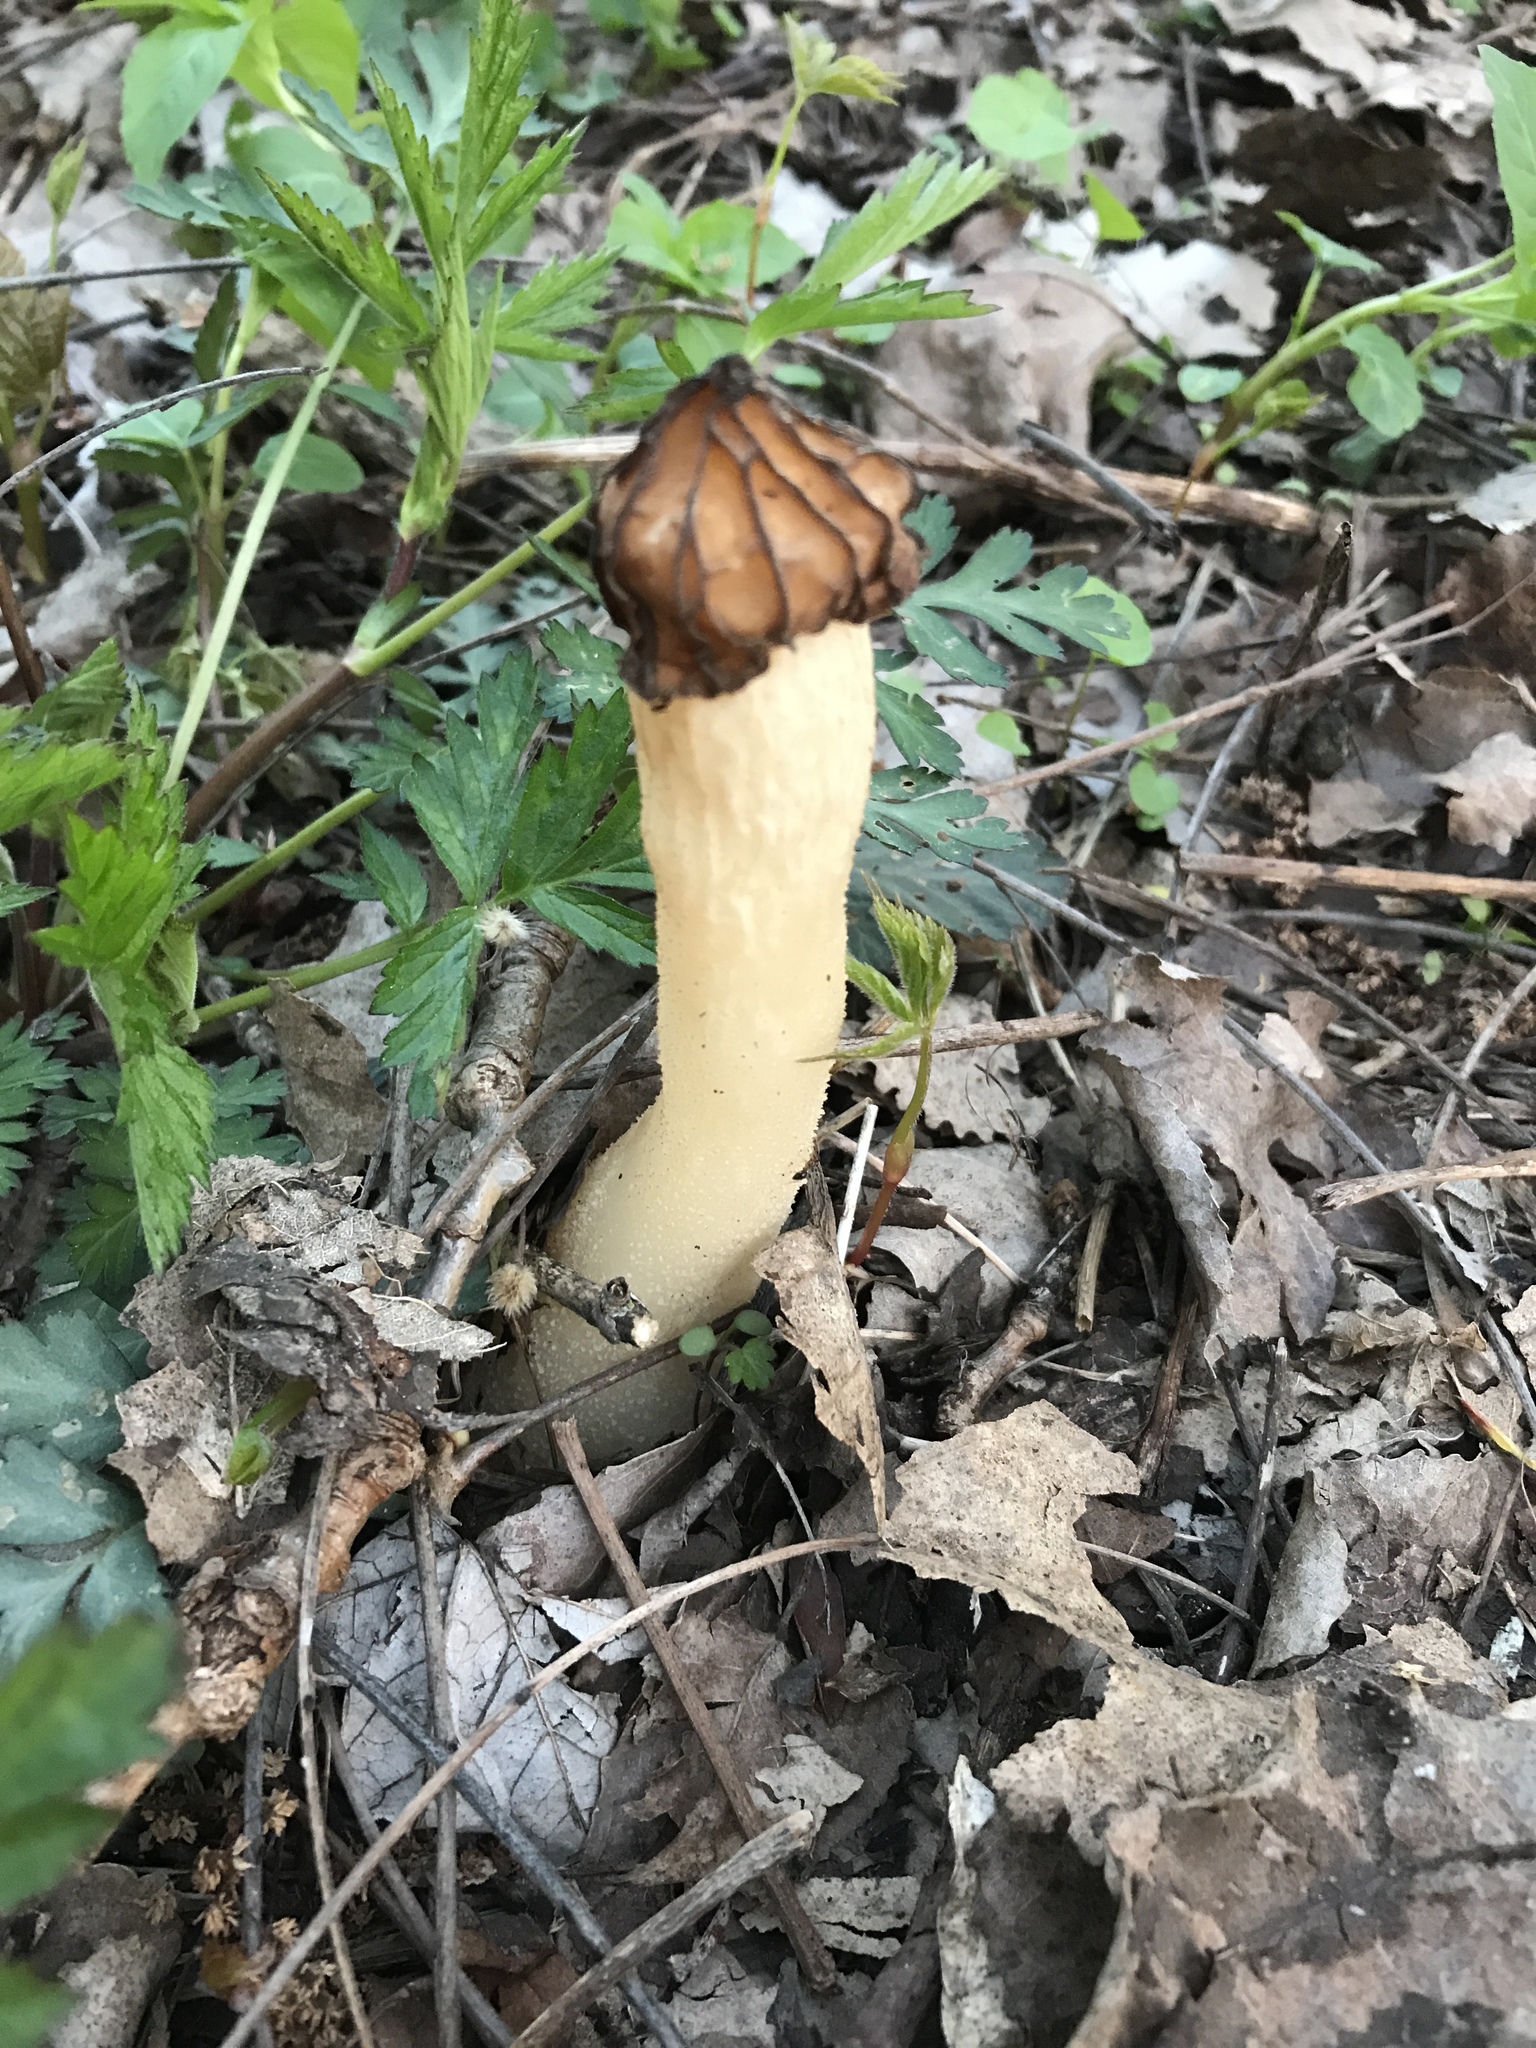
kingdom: Fungi
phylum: Ascomycota
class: Pezizomycetes
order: Pezizales
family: Morchellaceae
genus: Morchella
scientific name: Morchella punctipes
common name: Half-free morel
